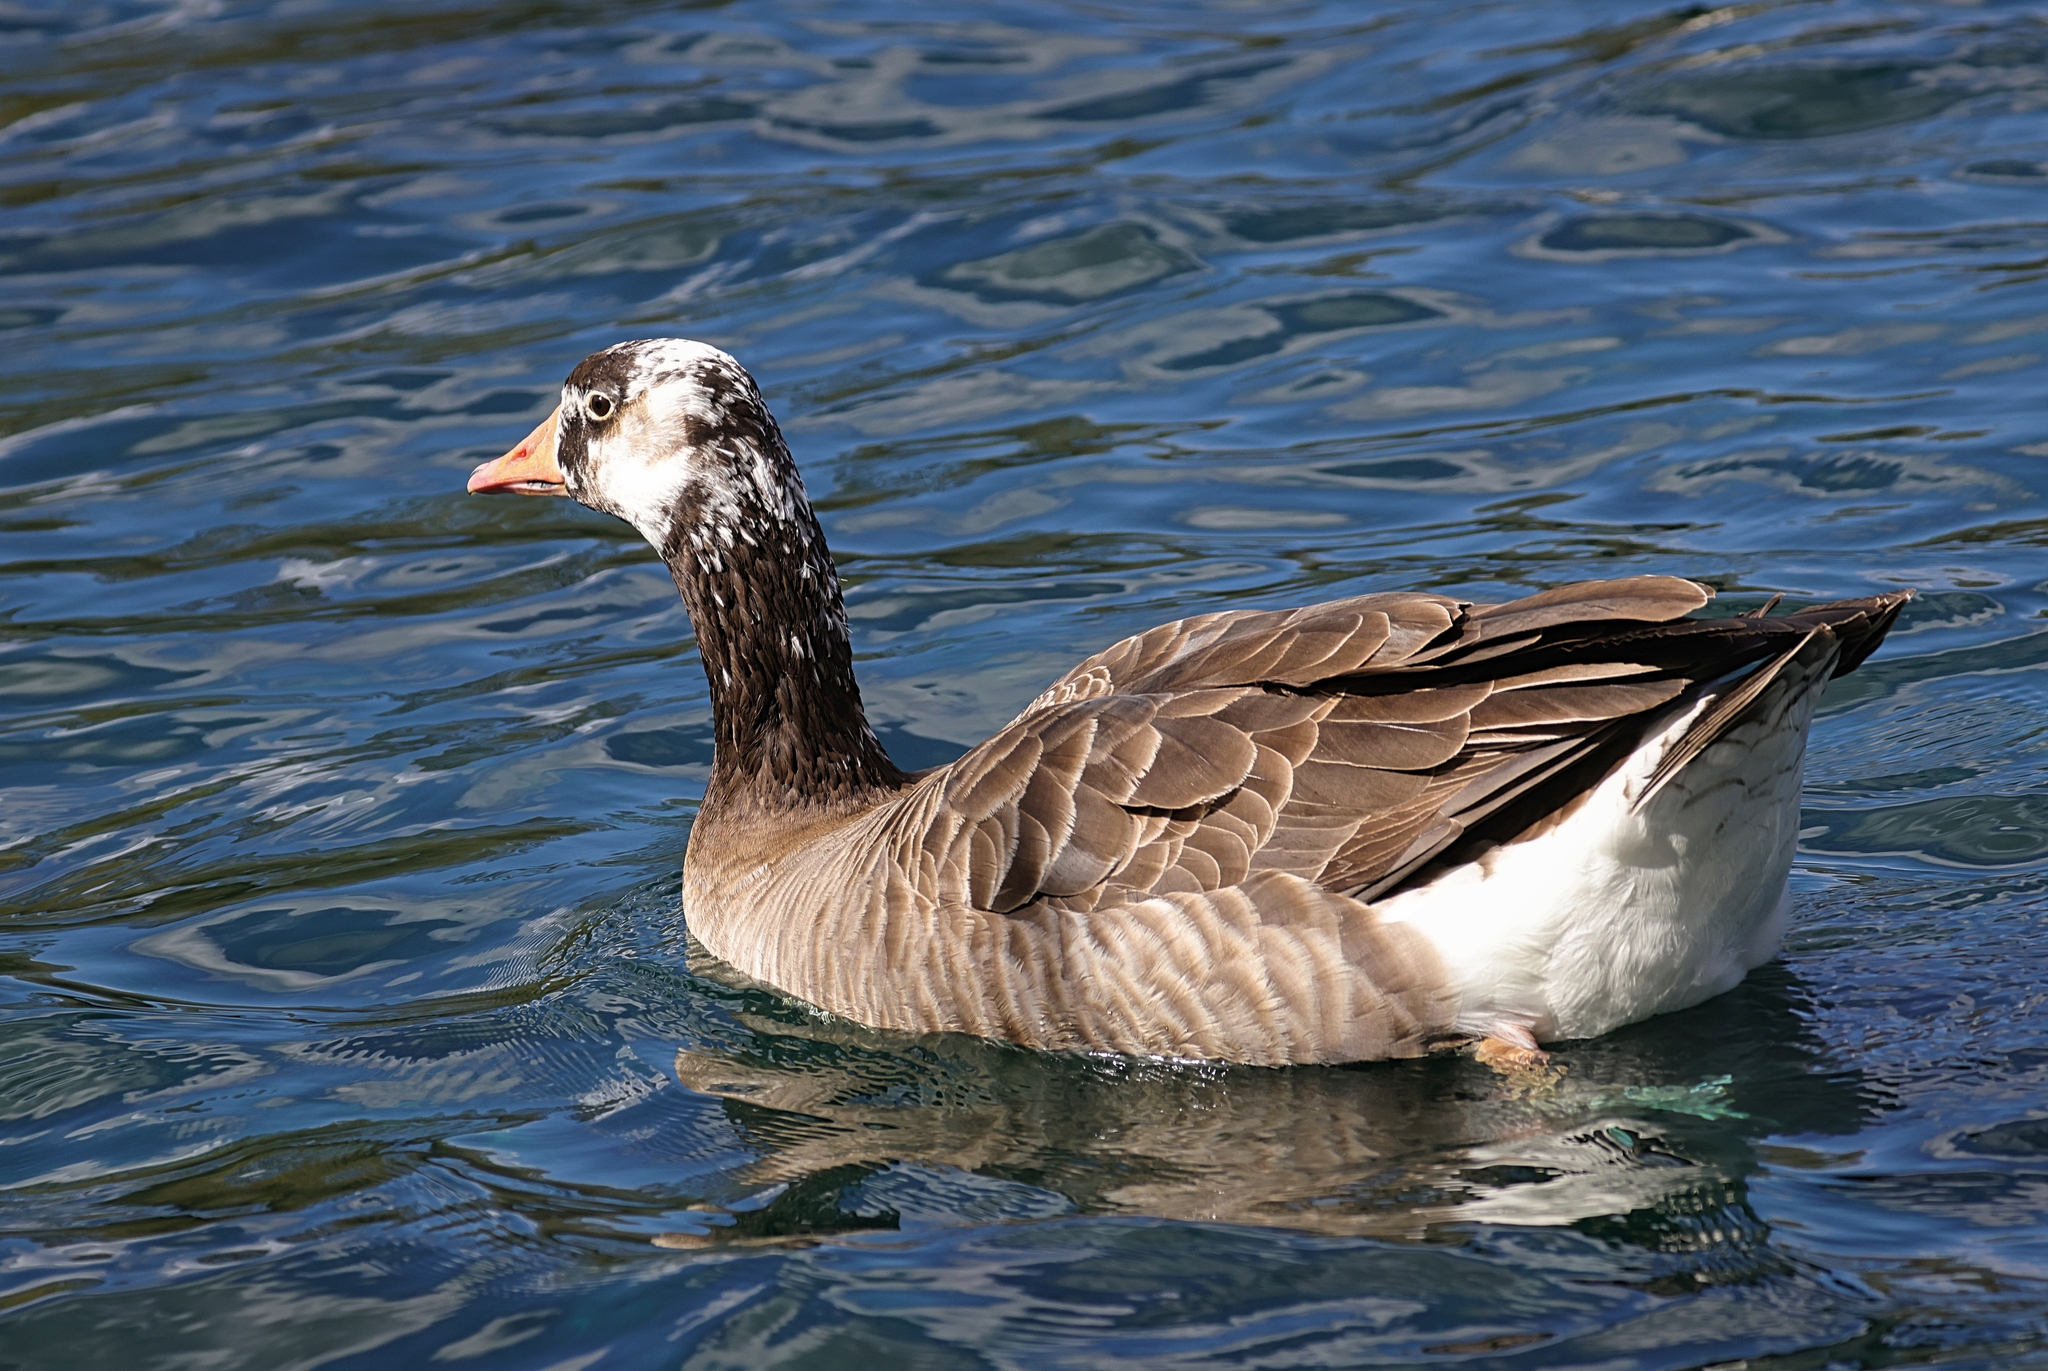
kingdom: Animalia
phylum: Chordata
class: Aves
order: Anseriformes
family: Anatidae
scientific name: Anatidae
